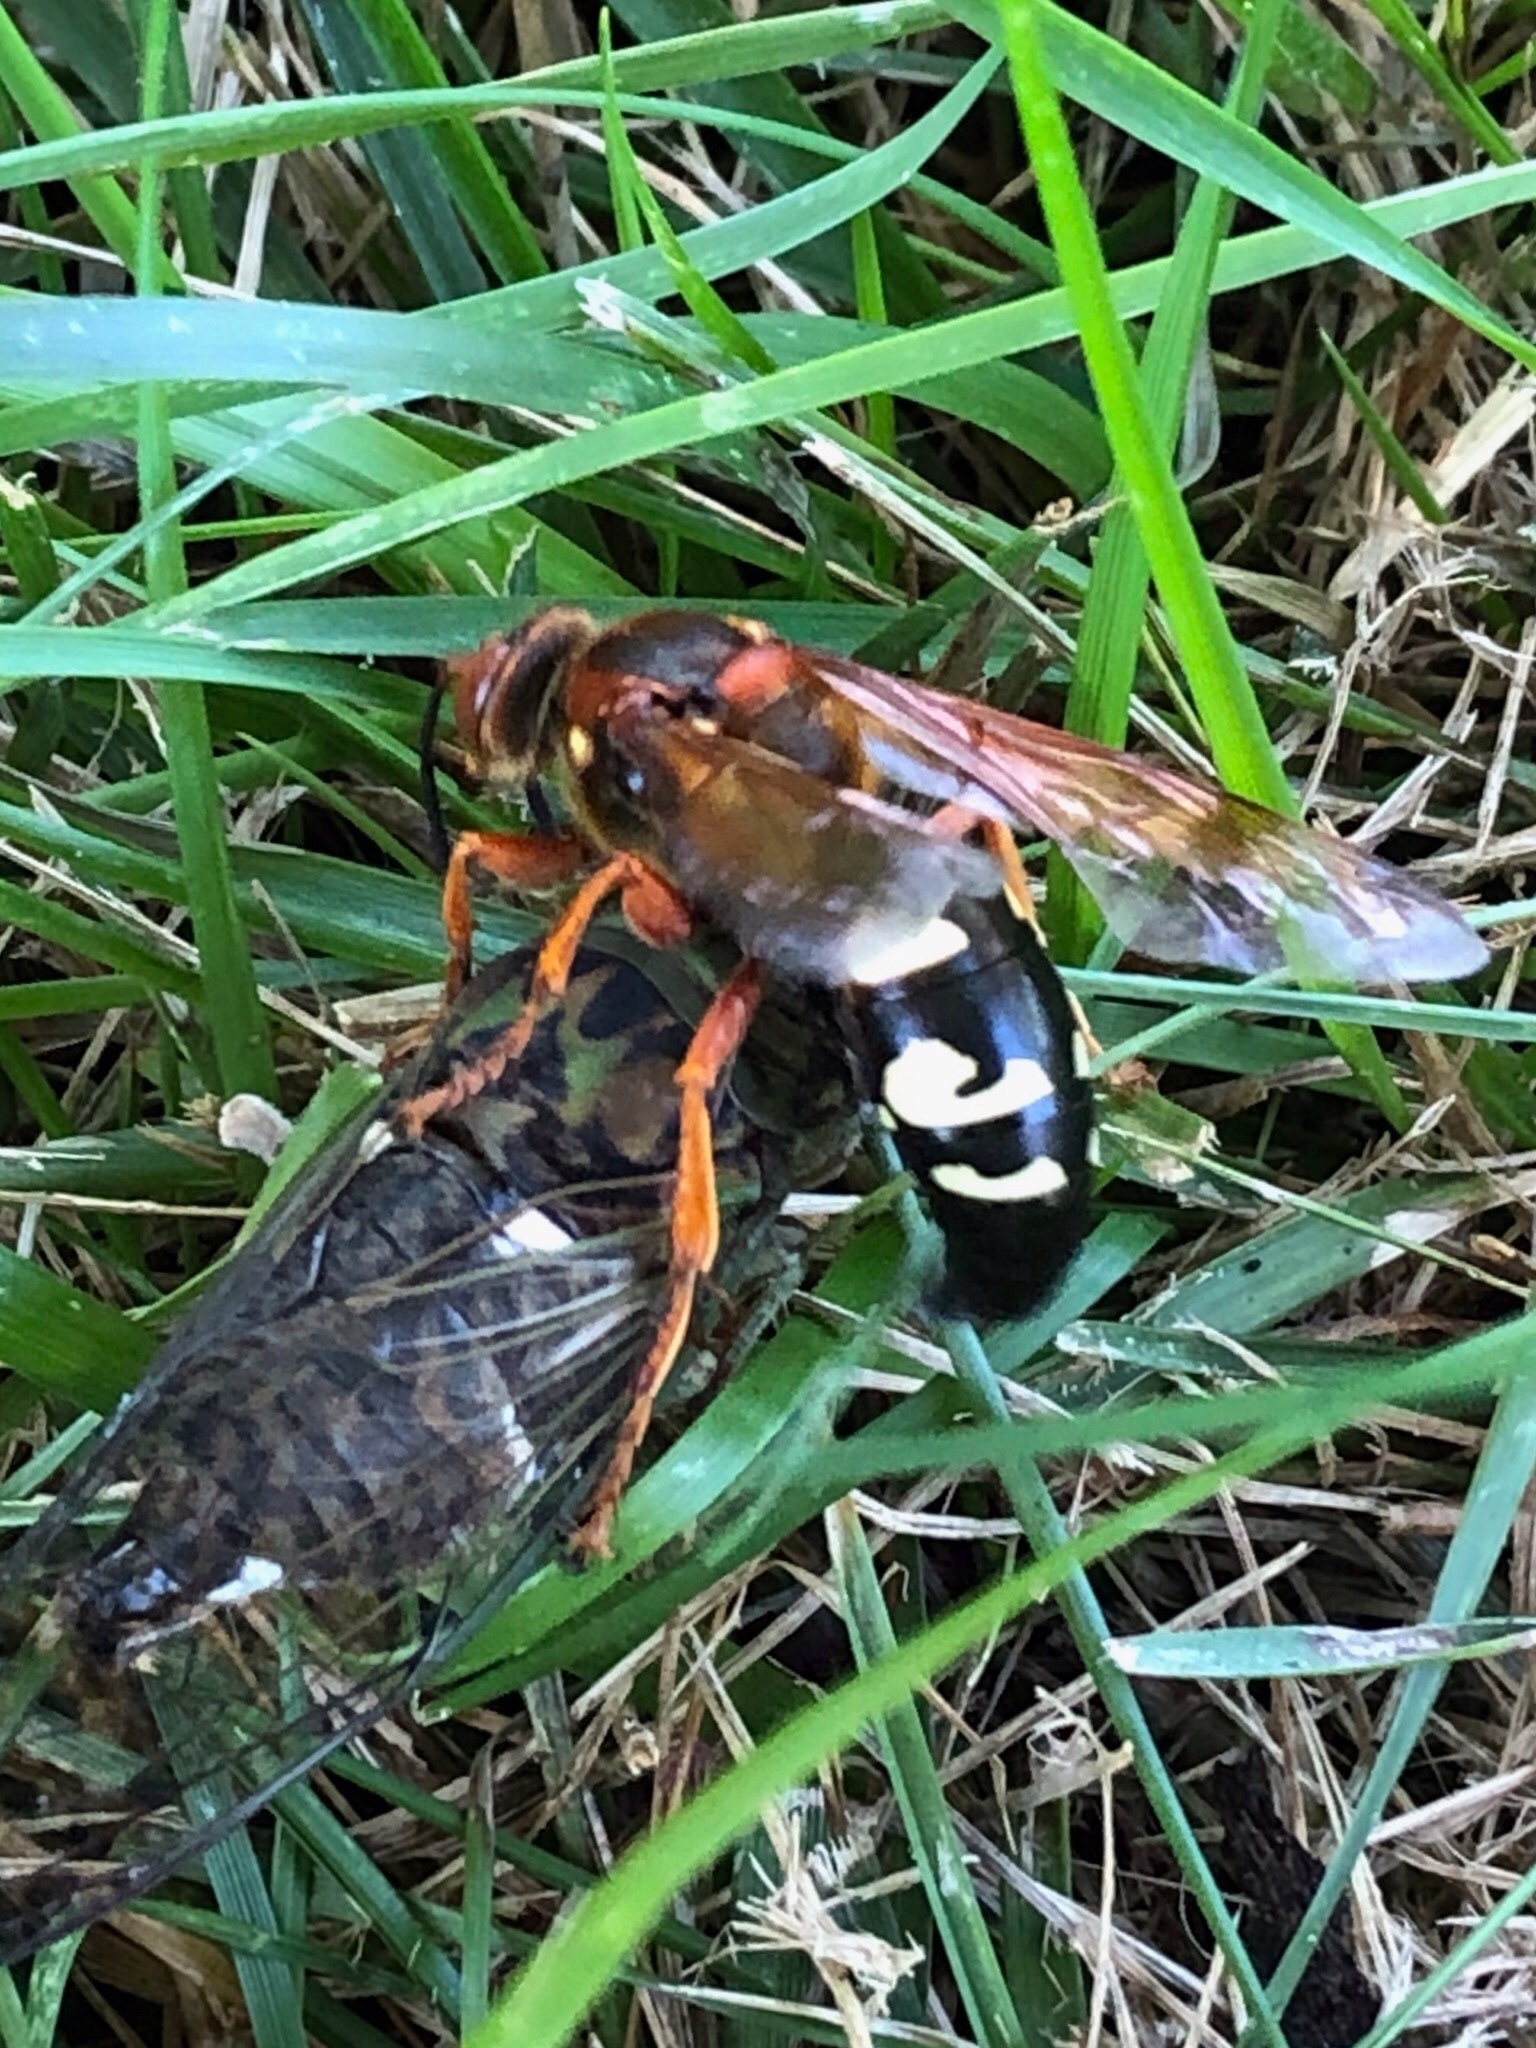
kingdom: Animalia
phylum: Arthropoda
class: Insecta
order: Hymenoptera
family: Crabronidae
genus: Sphecius
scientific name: Sphecius speciosus
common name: Cicada killer
